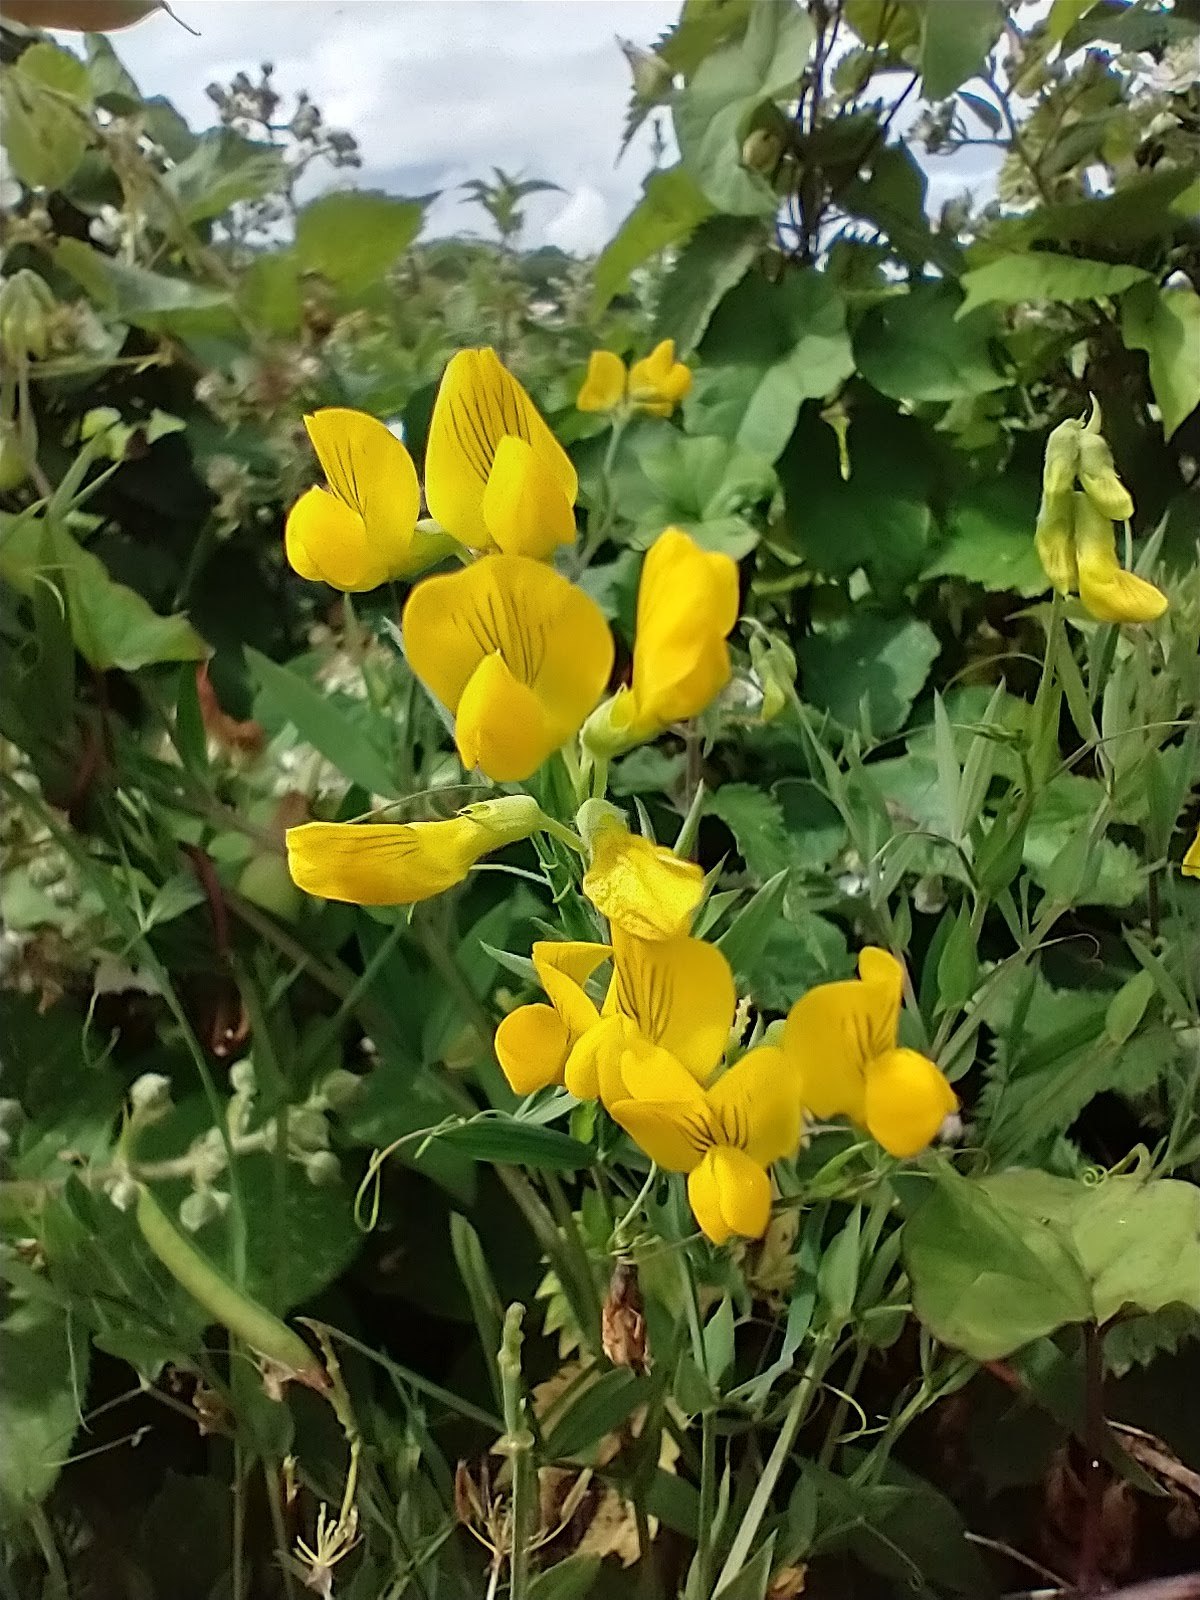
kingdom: Plantae
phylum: Tracheophyta
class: Magnoliopsida
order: Fabales
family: Fabaceae
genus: Lathyrus
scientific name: Lathyrus pratensis
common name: Meadow vetchling
